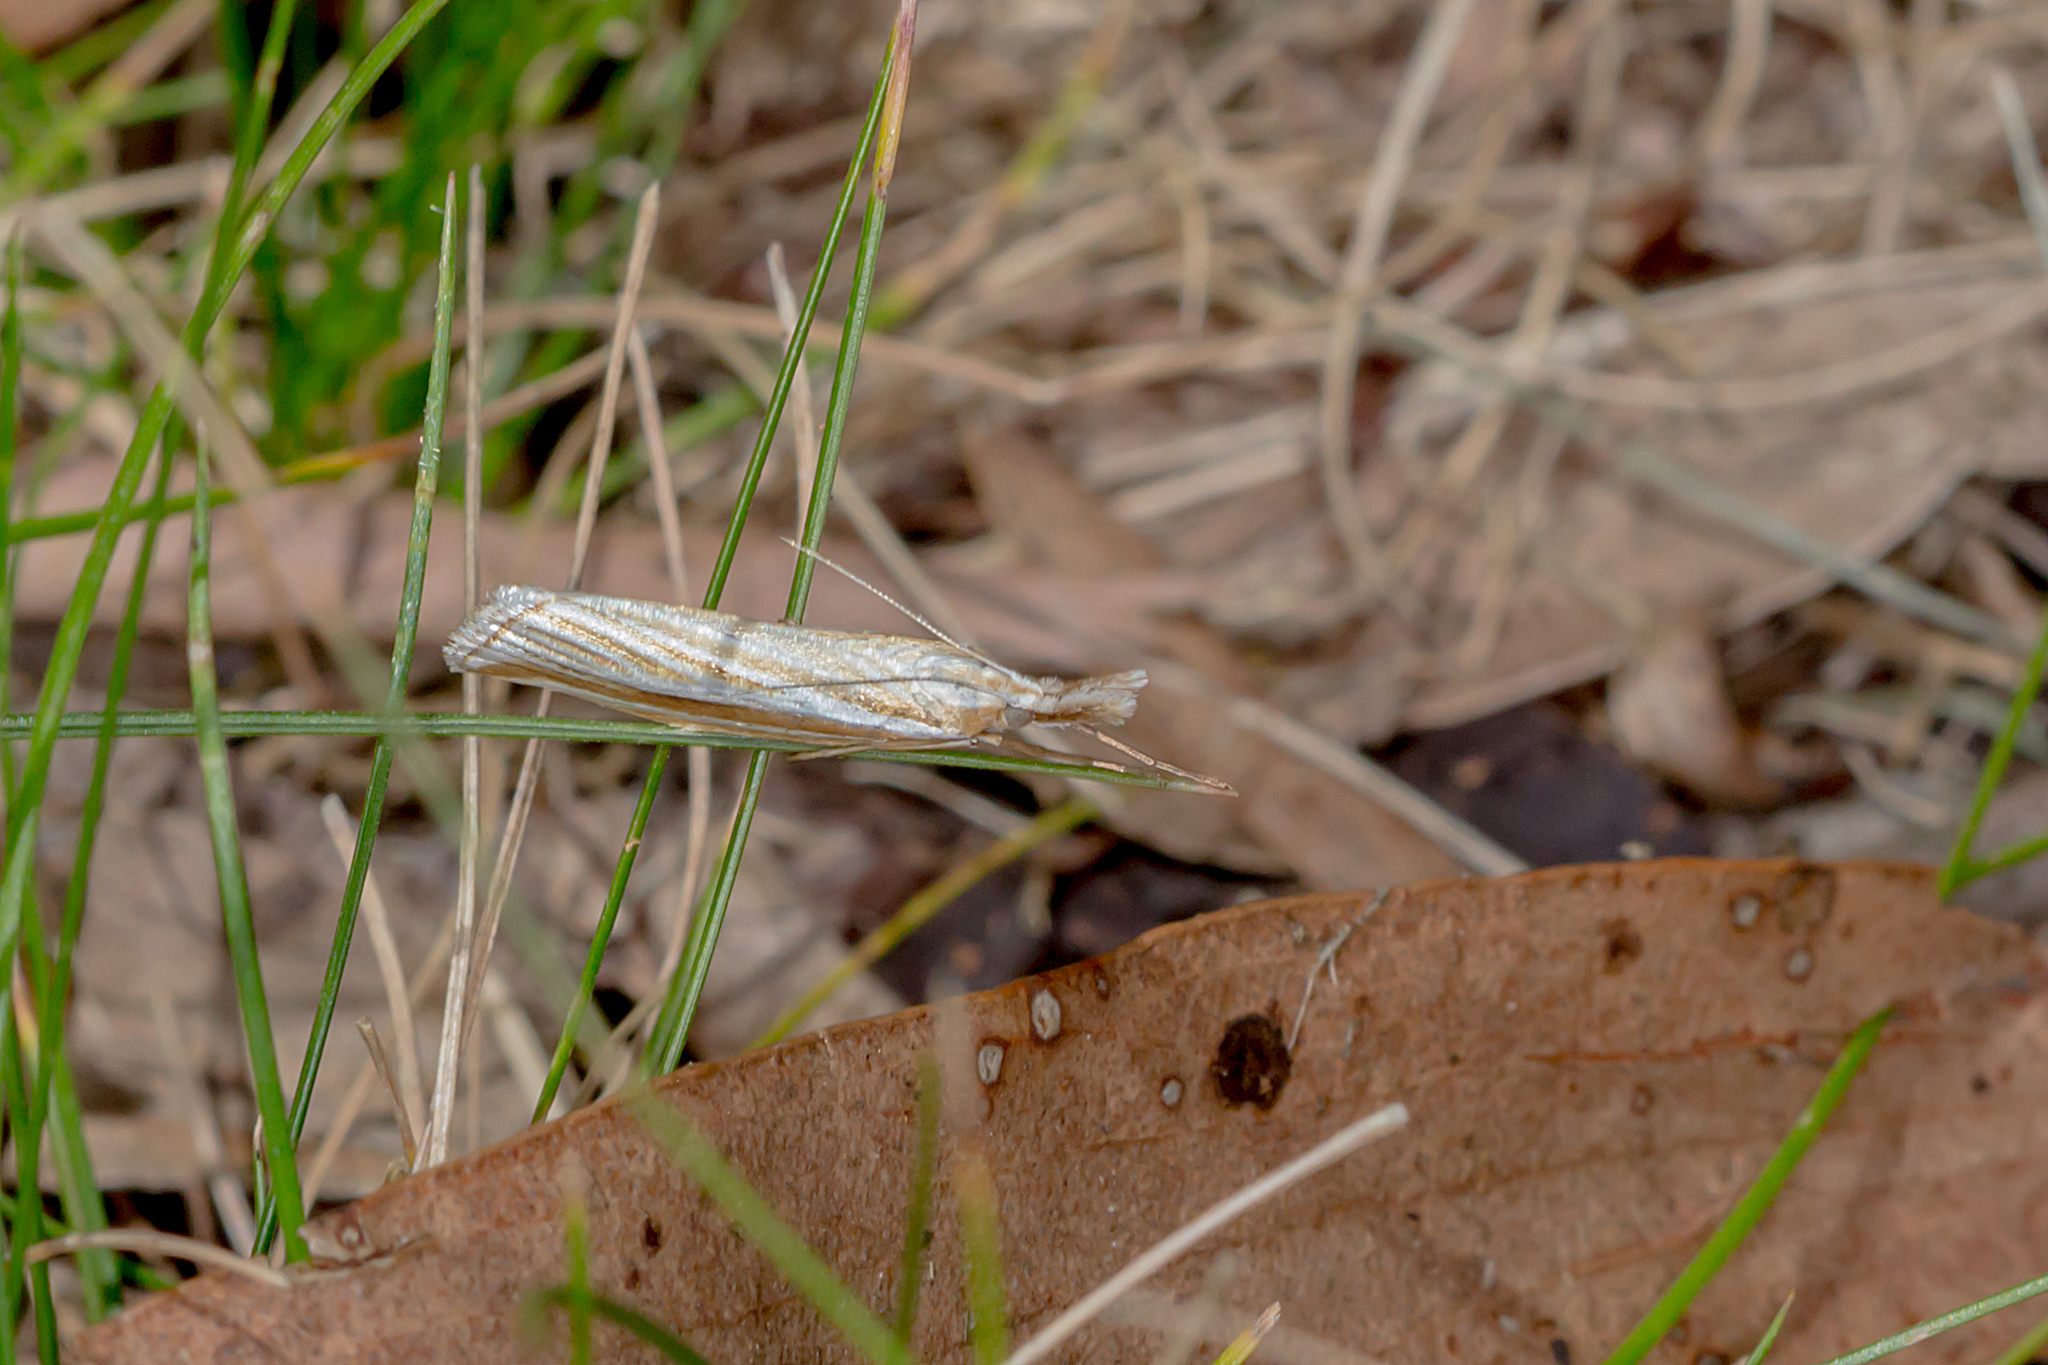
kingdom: Animalia
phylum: Arthropoda
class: Insecta
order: Lepidoptera
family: Crambidae
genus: Hednota
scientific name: Hednota grammellus
